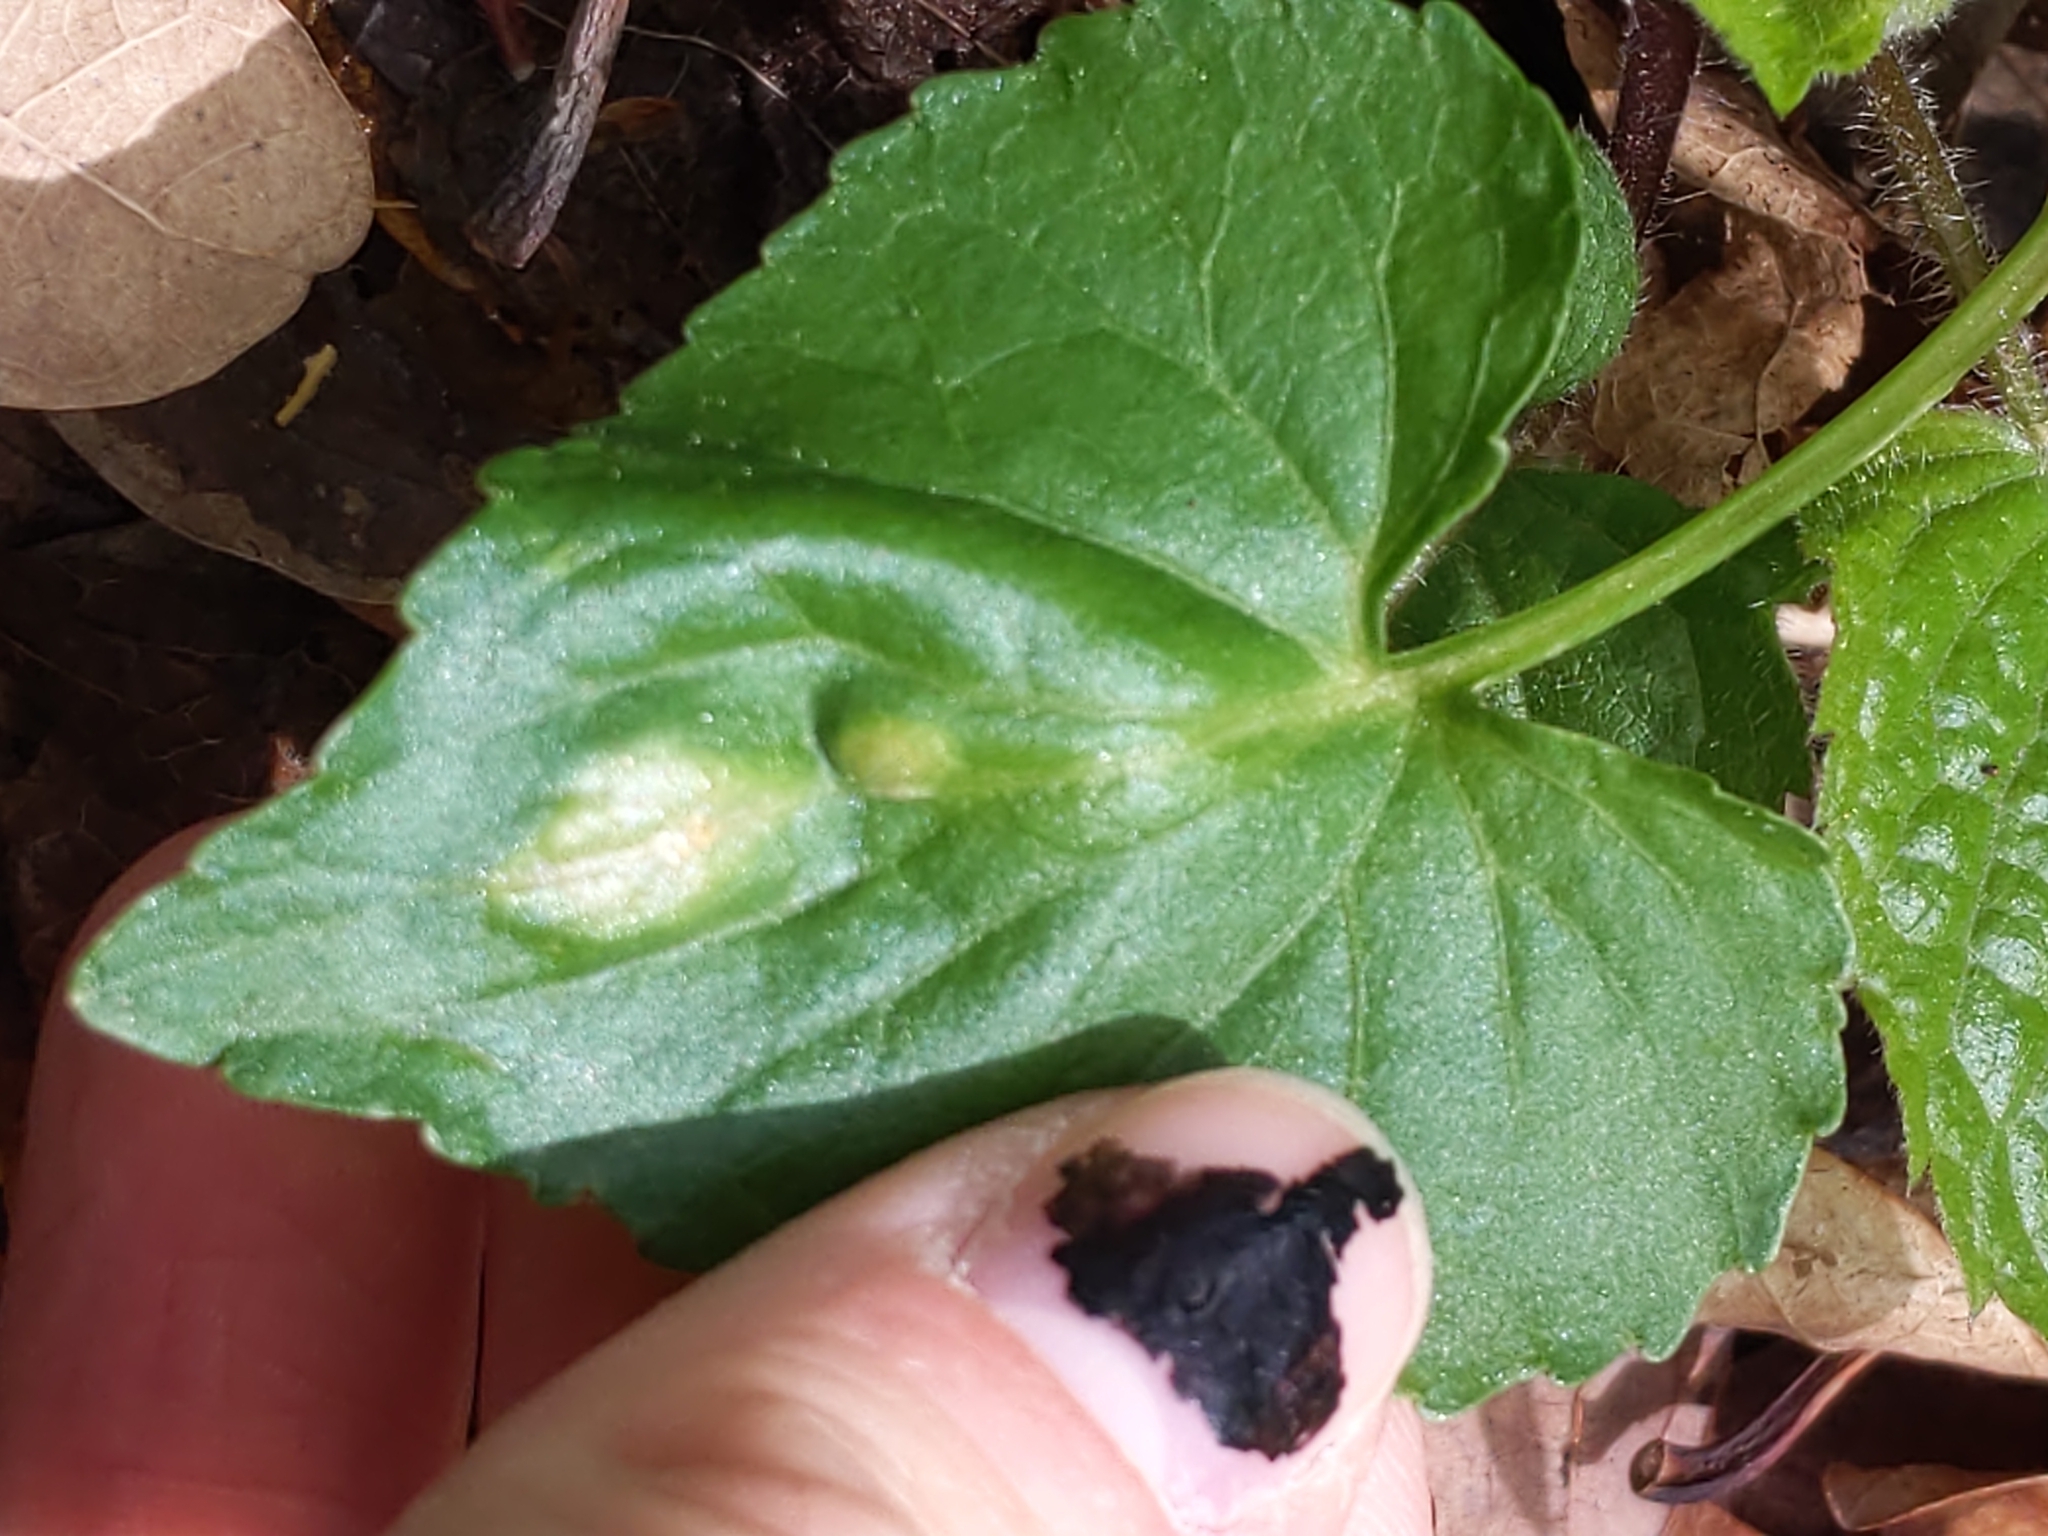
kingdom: Fungi
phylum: Basidiomycota
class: Pucciniomycetes
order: Pucciniales
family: Pucciniaceae
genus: Puccinia
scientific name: Puccinia violae
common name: Violet rust
